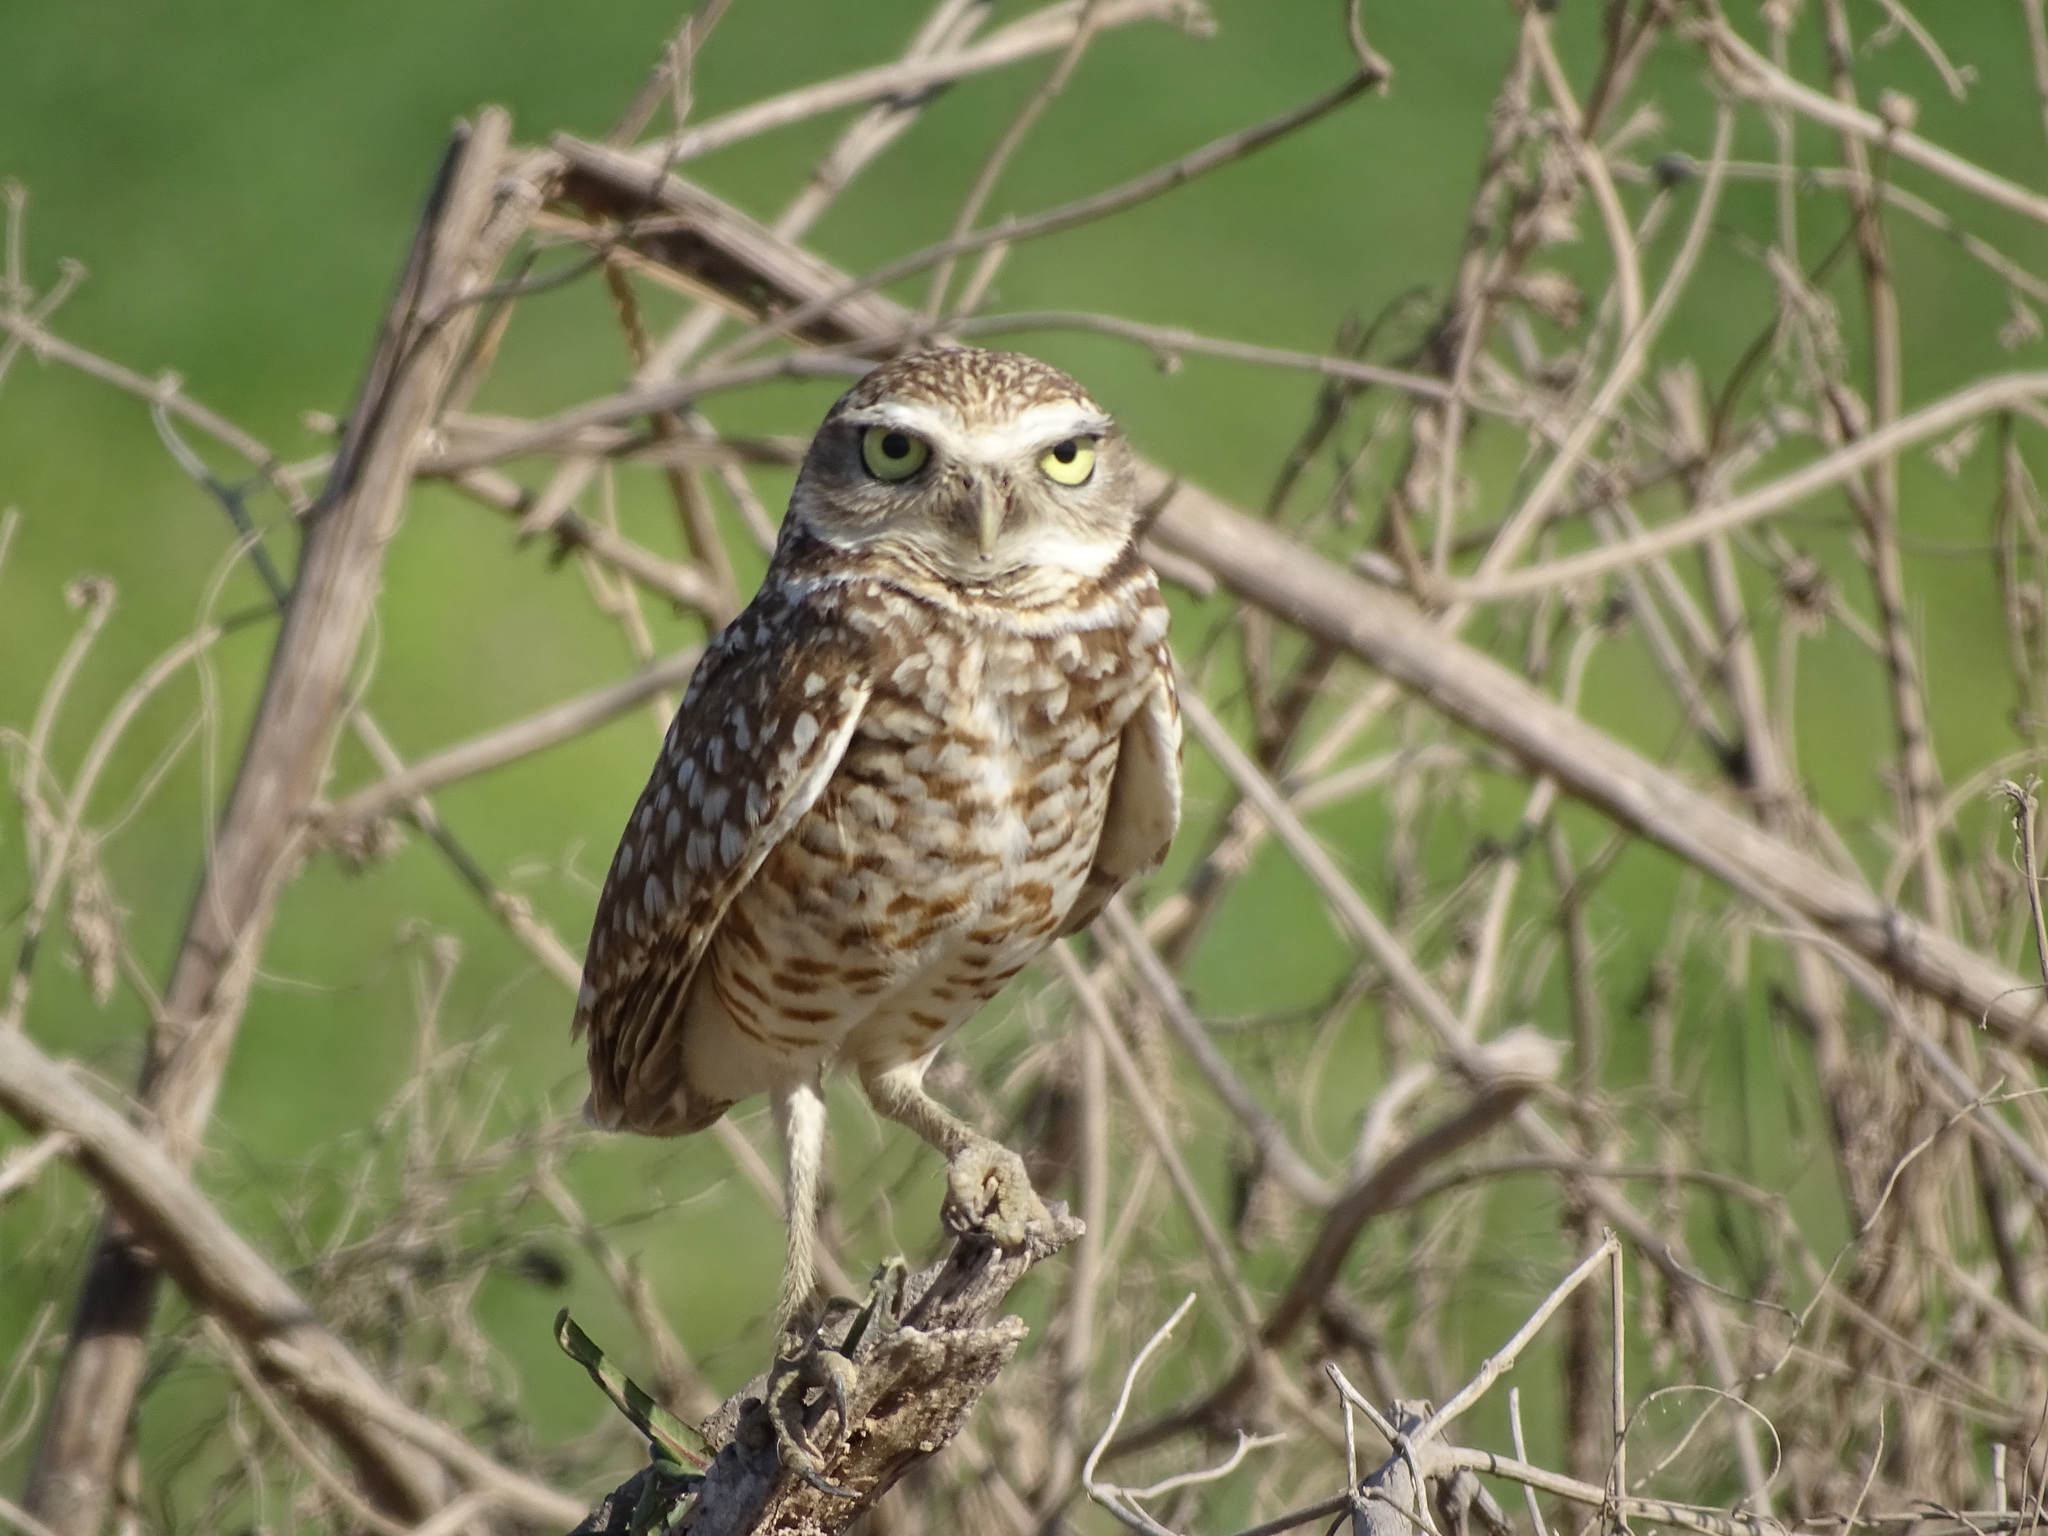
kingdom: Animalia
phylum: Chordata
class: Aves
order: Strigiformes
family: Strigidae
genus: Athene
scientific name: Athene cunicularia
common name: Burrowing owl
